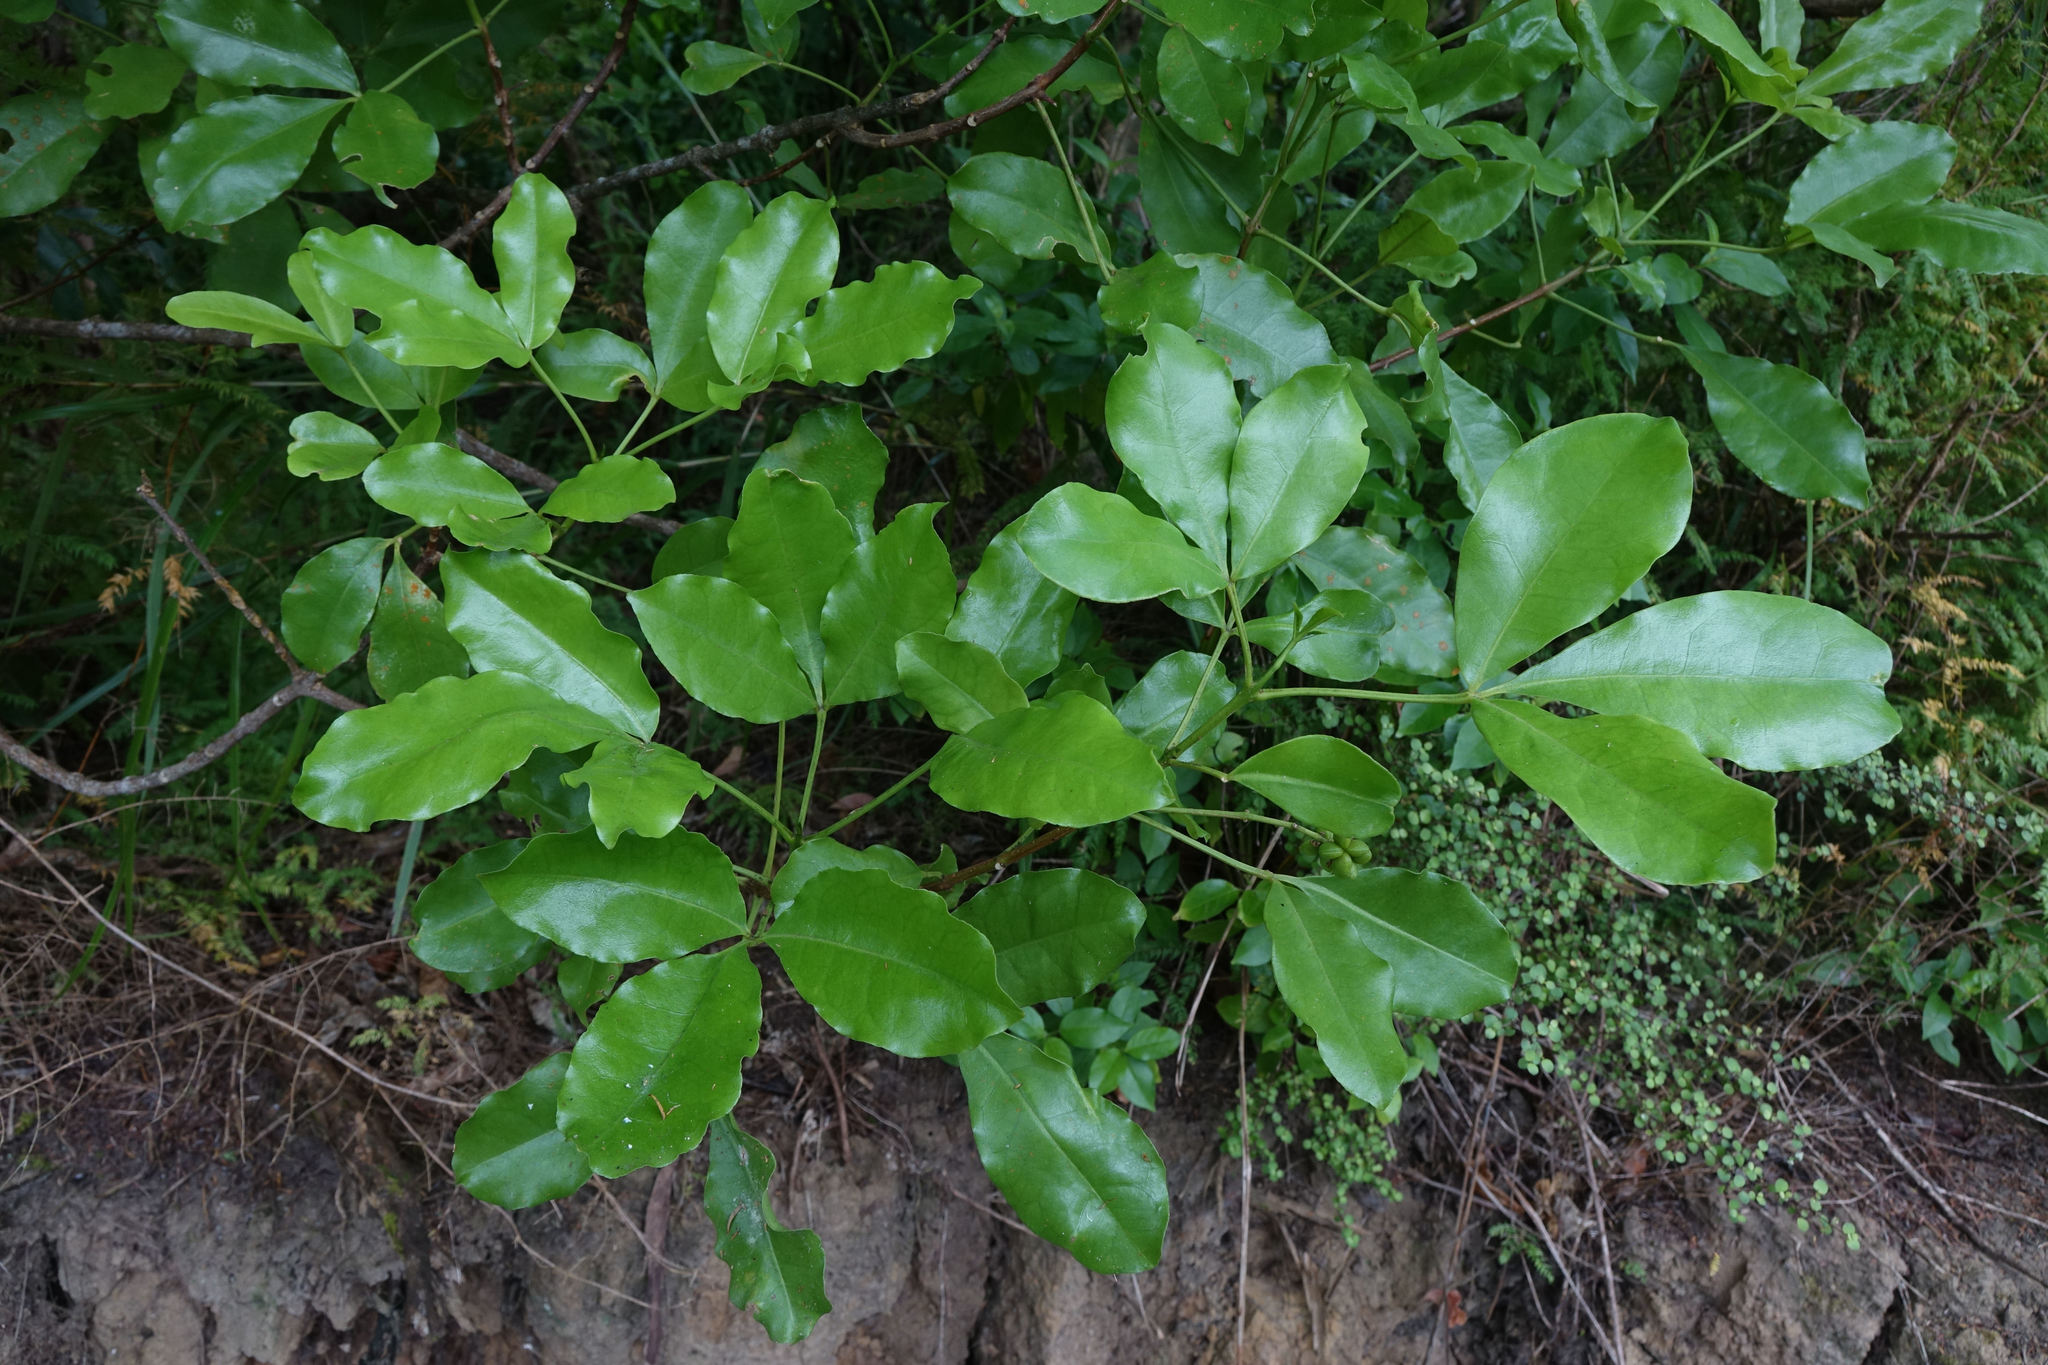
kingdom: Plantae
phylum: Tracheophyta
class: Magnoliopsida
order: Sapindales
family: Rutaceae
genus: Melicope
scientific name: Melicope ternata
